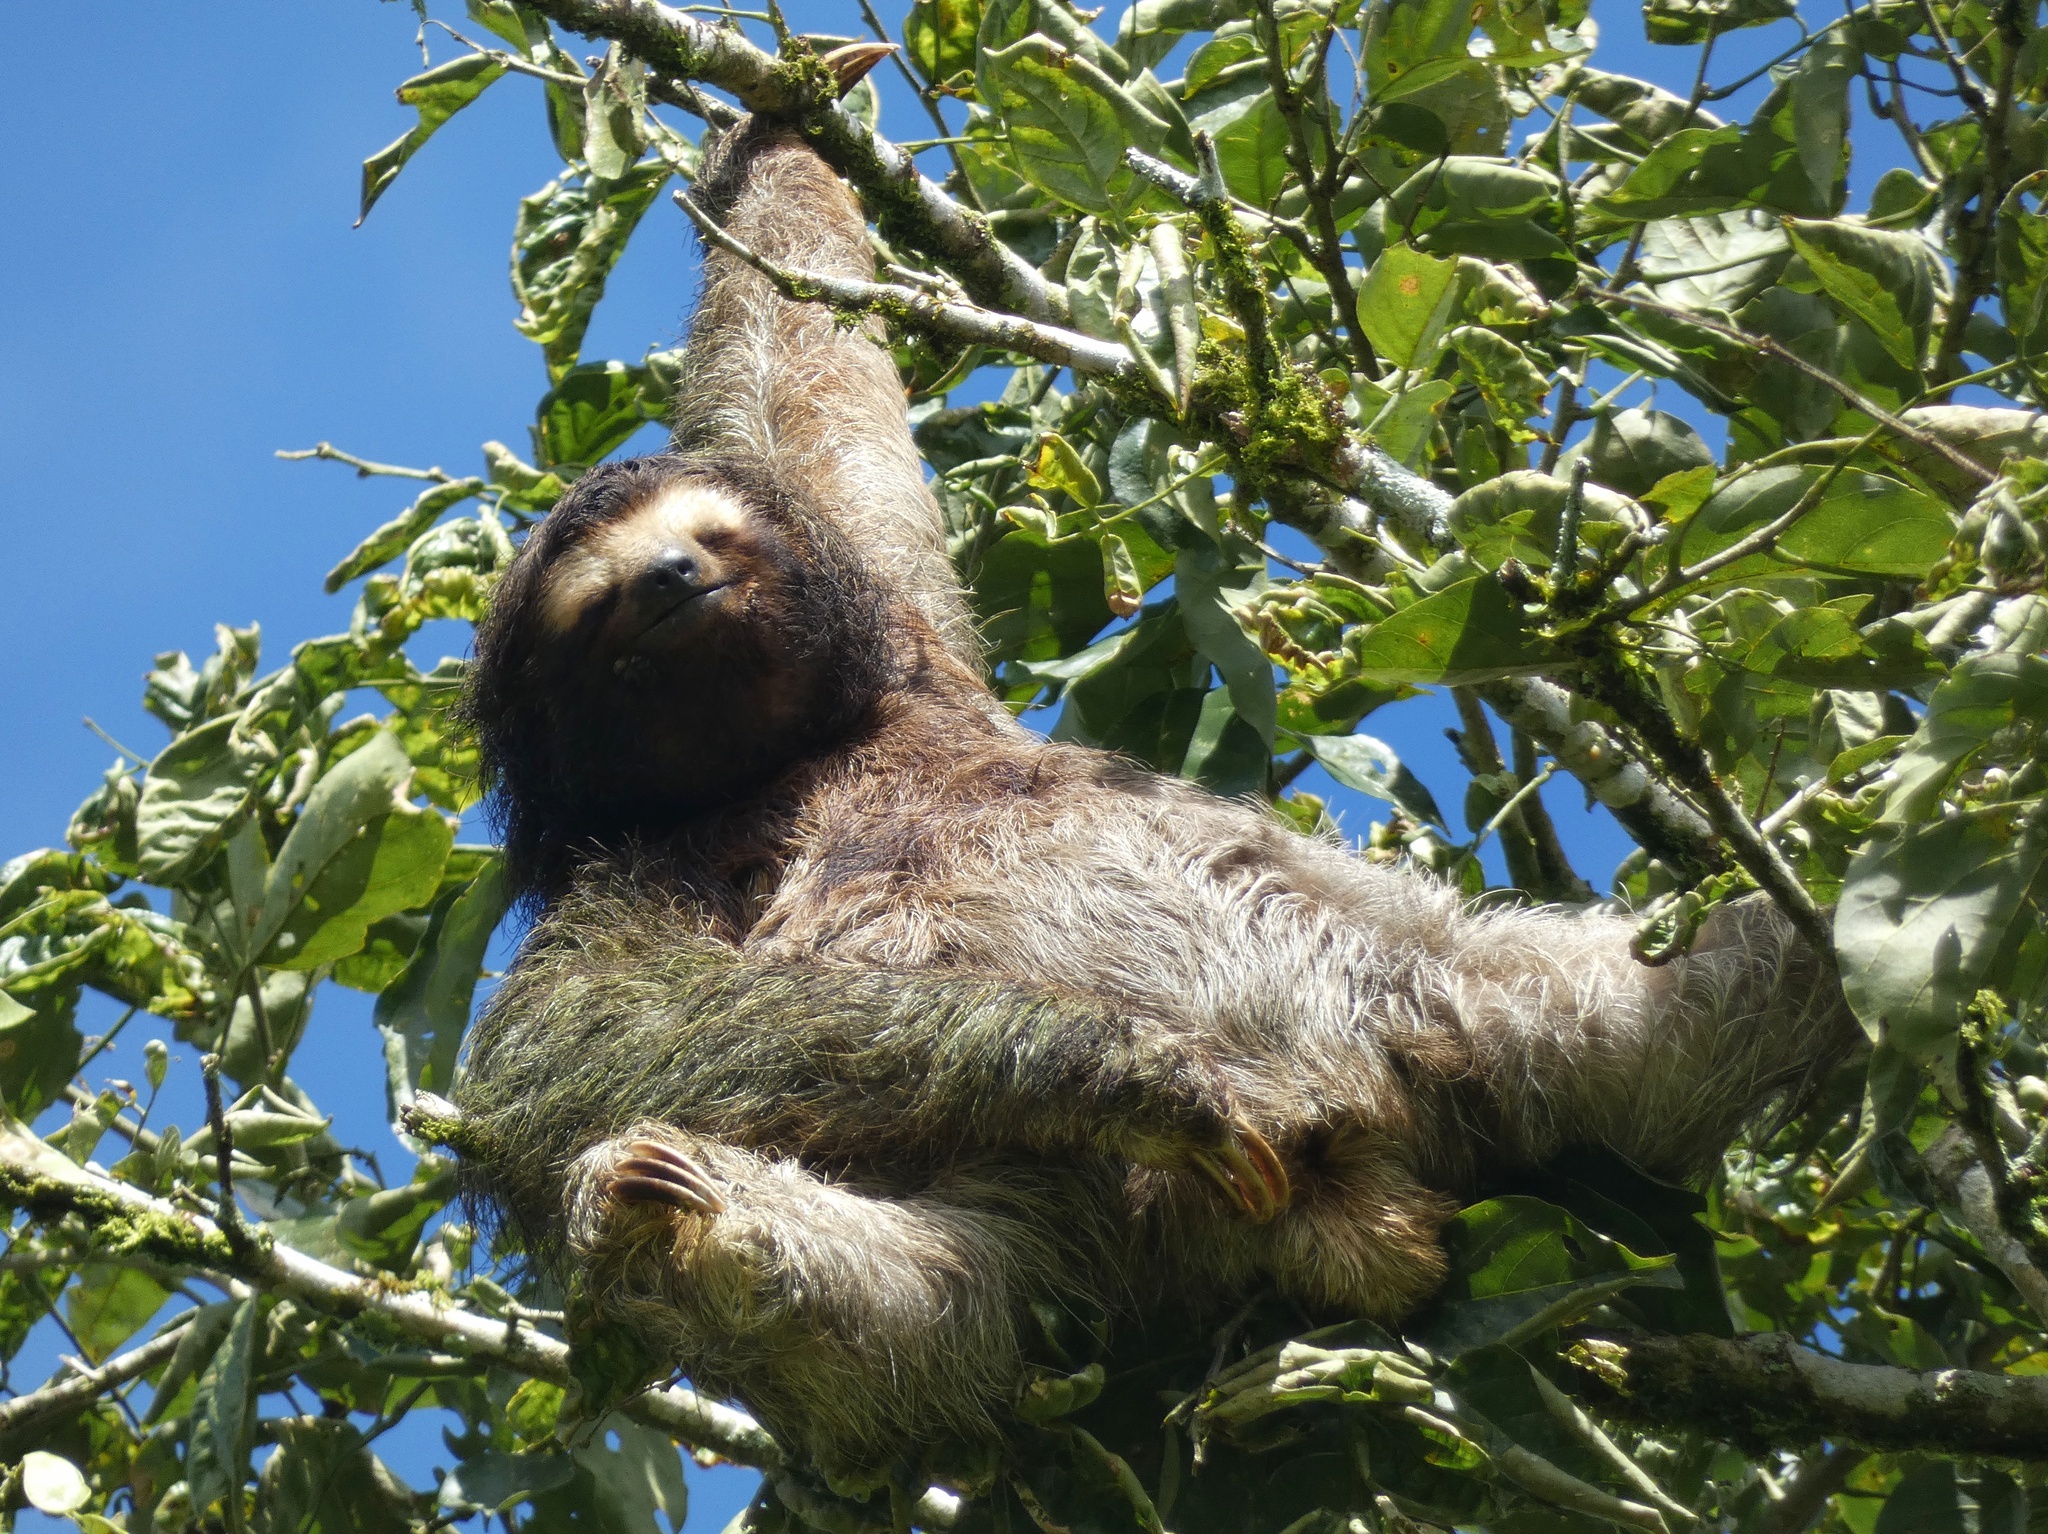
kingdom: Animalia
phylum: Chordata
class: Mammalia
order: Pilosa
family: Bradypodidae
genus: Bradypus
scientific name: Bradypus variegatus
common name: Brown-throated three-toed sloth
